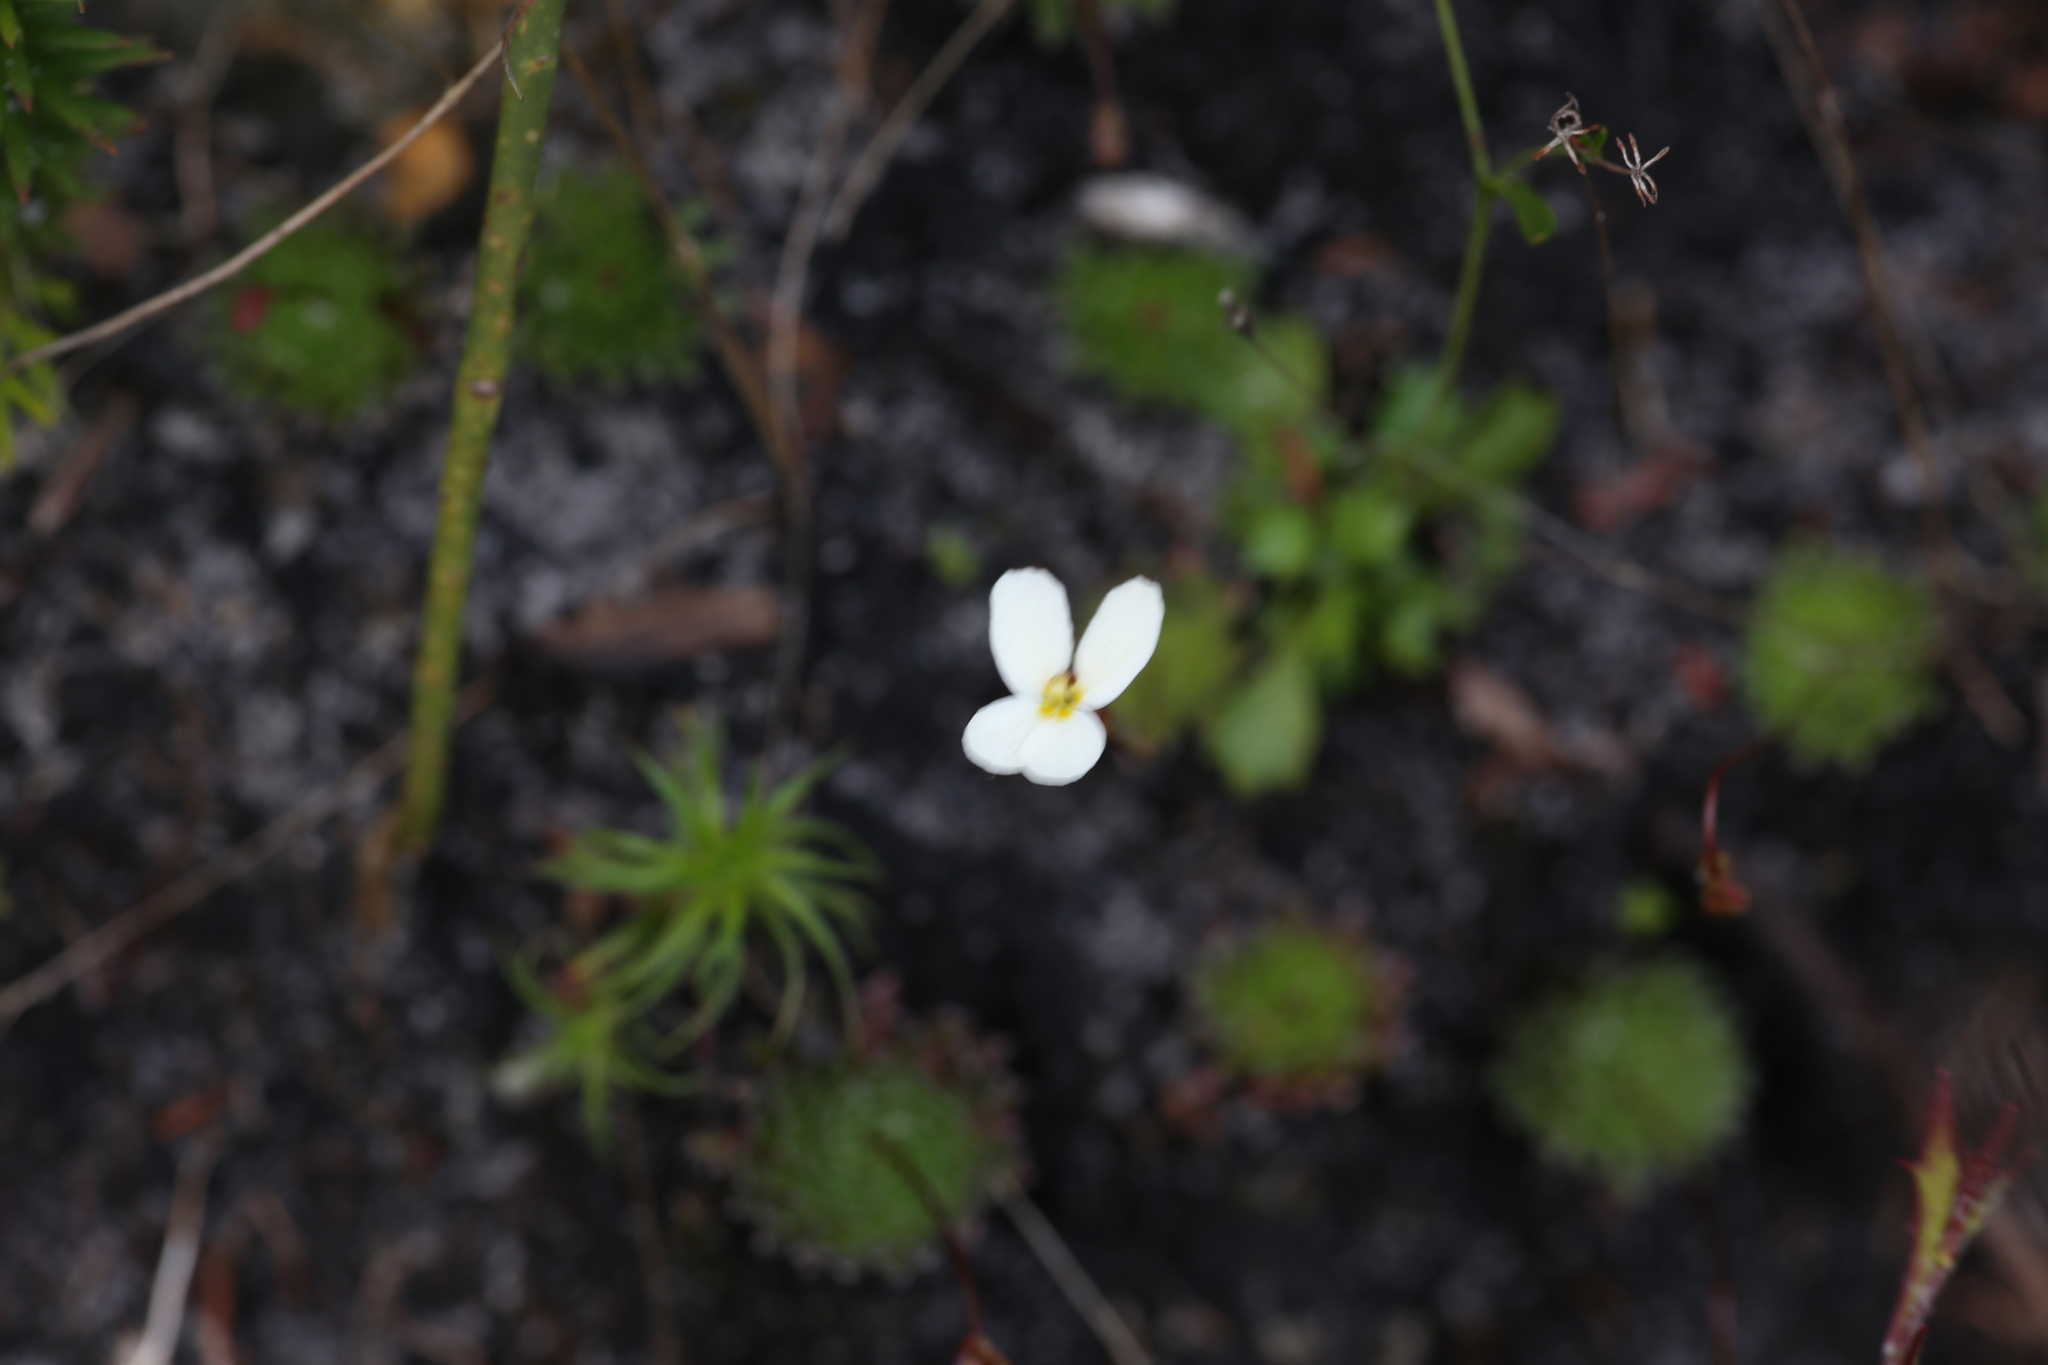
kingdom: Plantae
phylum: Tracheophyta
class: Magnoliopsida
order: Asterales
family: Stylidiaceae
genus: Stylidium
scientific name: Stylidium piliferum
